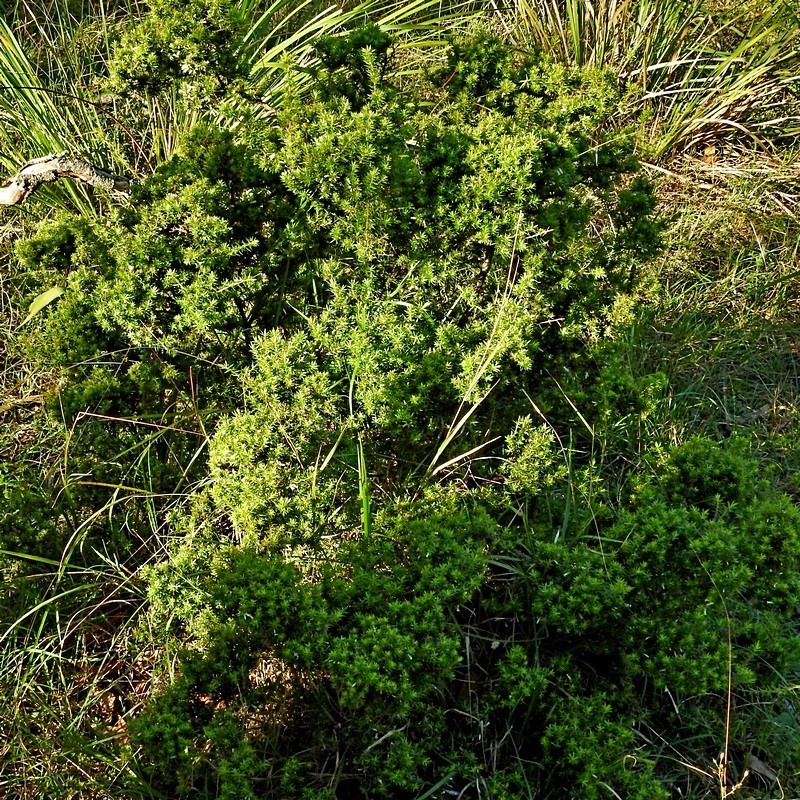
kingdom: Plantae
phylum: Tracheophyta
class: Magnoliopsida
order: Ericales
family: Ericaceae
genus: Styphelia
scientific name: Styphelia sieberi
